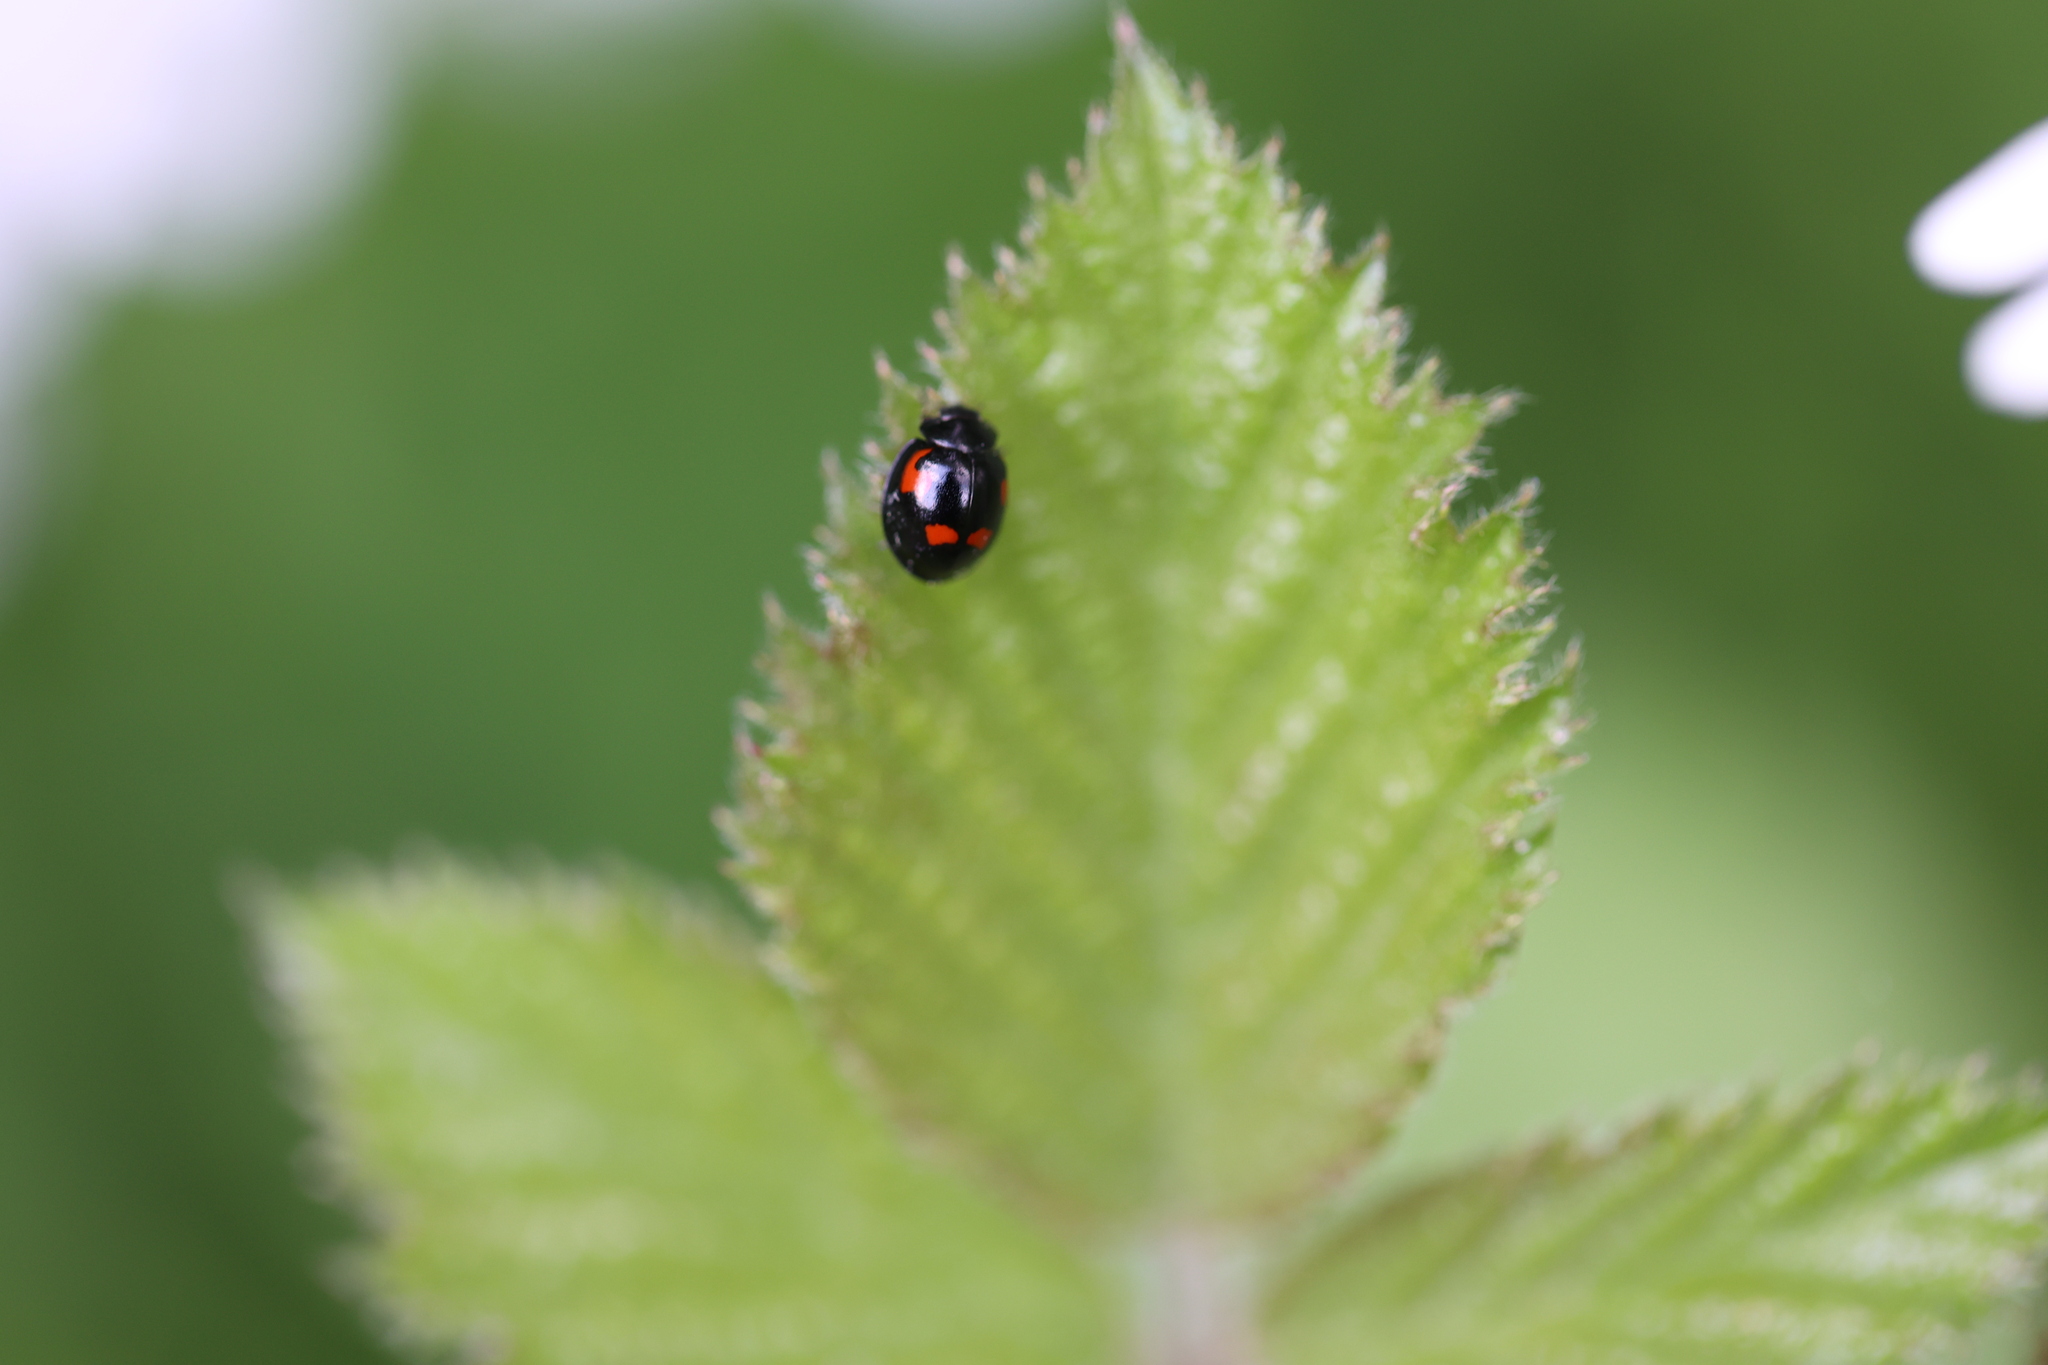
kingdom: Animalia
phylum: Arthropoda
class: Insecta
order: Coleoptera
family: Coccinellidae
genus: Brumus
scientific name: Brumus quadripustulatus
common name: Ladybird beetle
